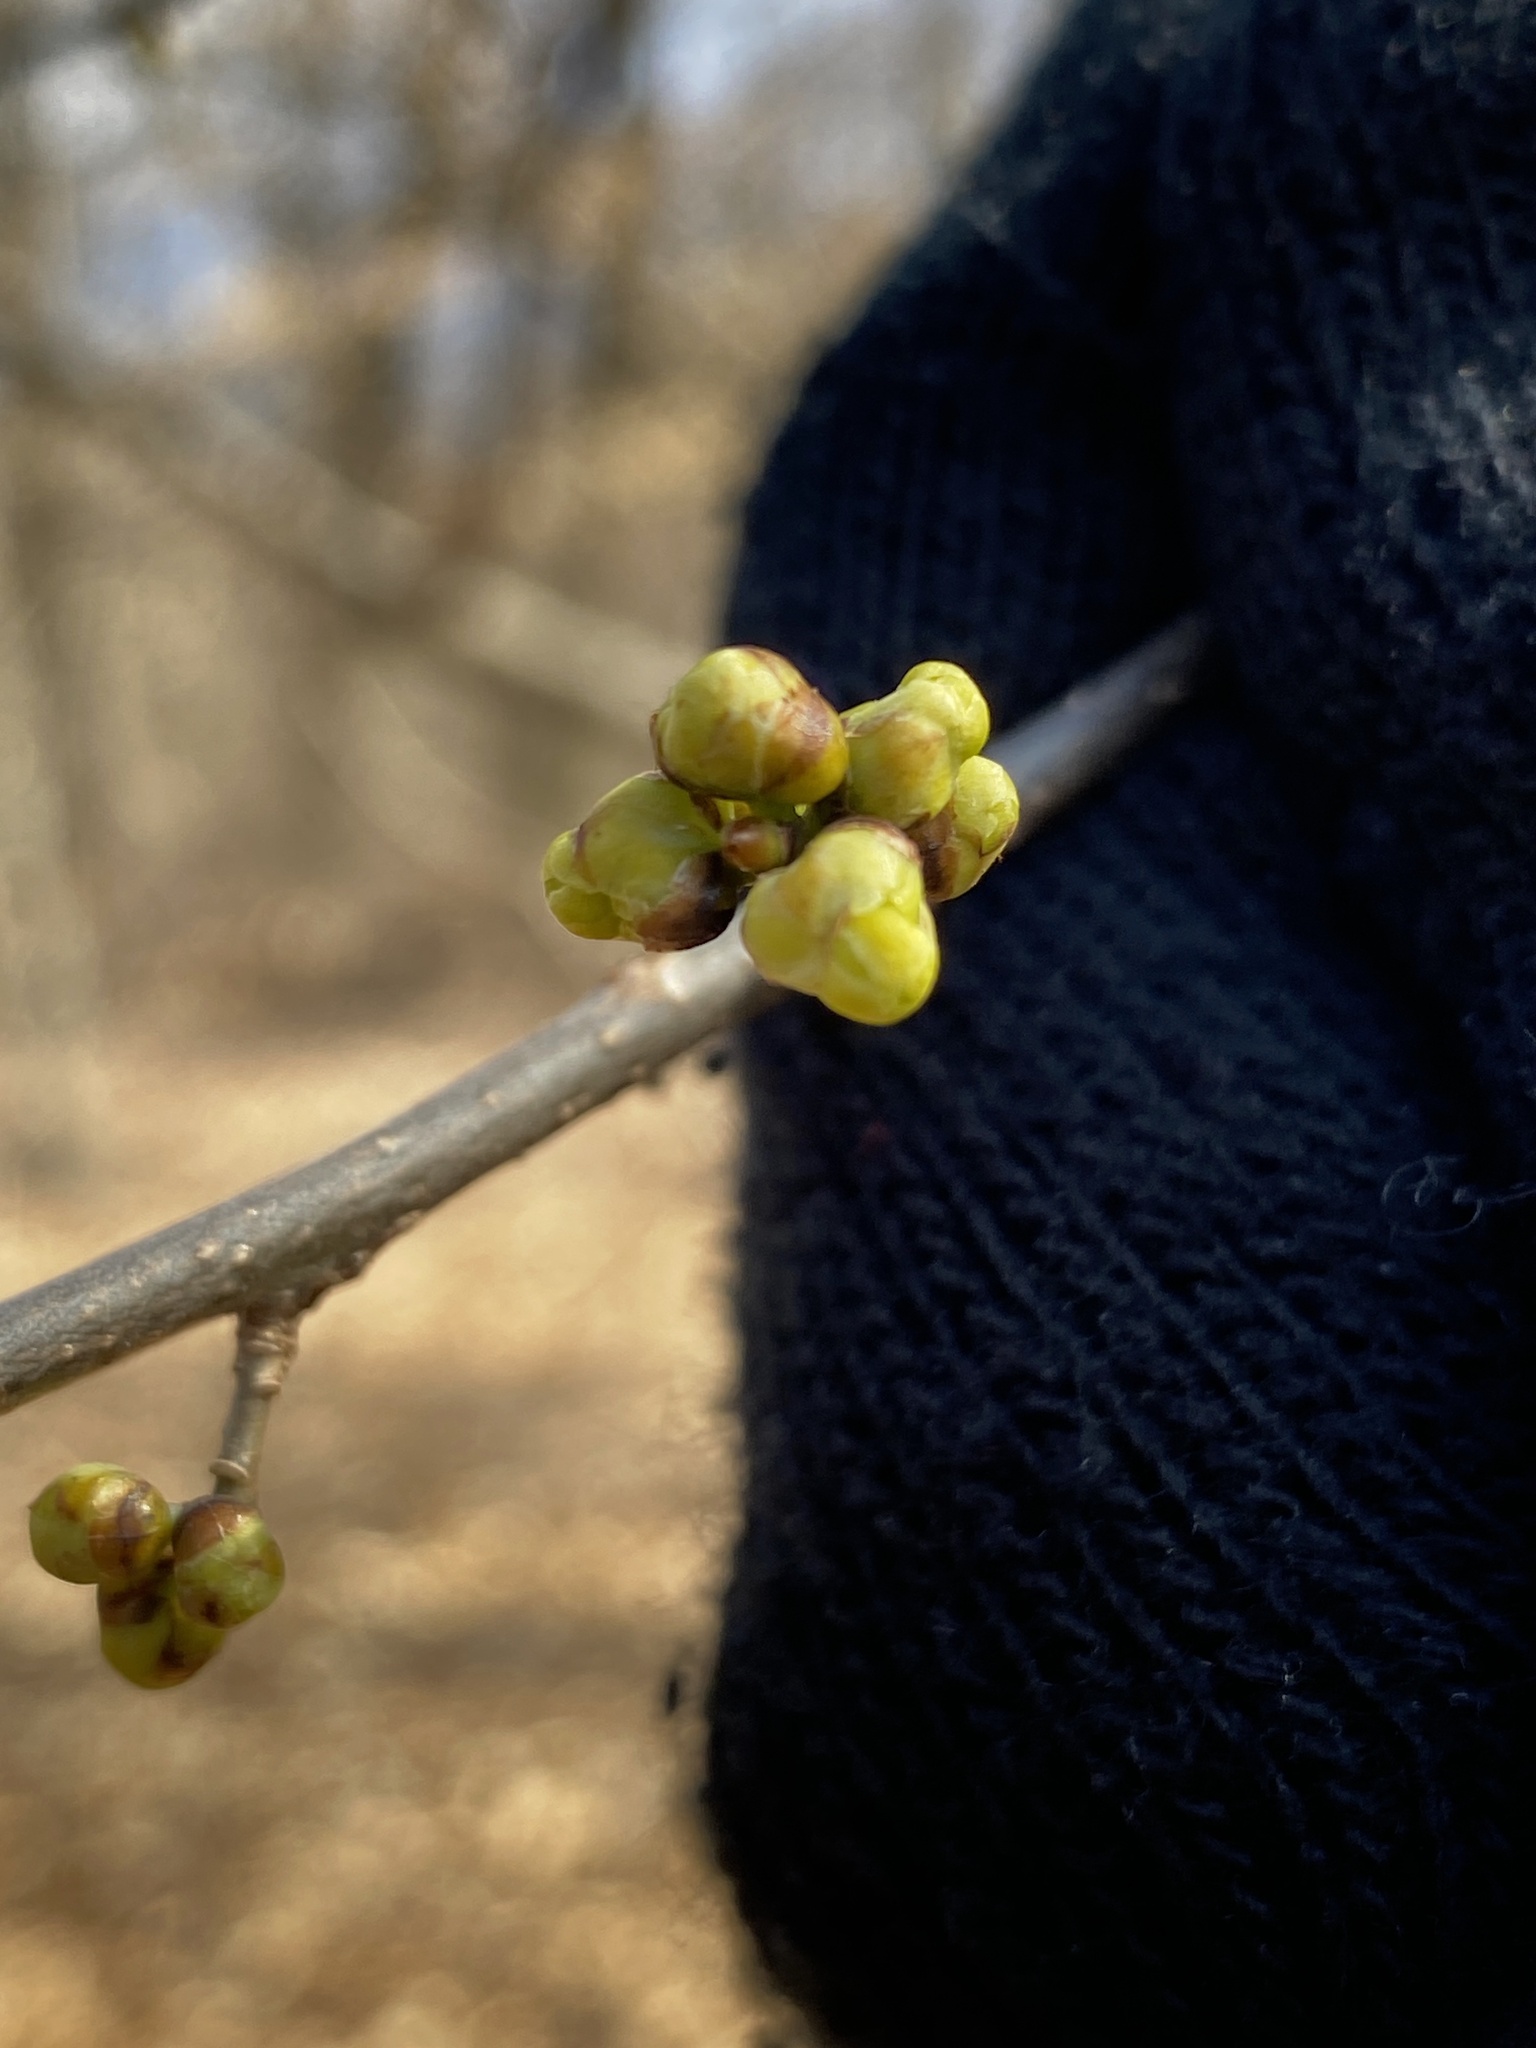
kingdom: Plantae
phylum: Tracheophyta
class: Magnoliopsida
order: Laurales
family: Lauraceae
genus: Lindera
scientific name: Lindera benzoin
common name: Spicebush
